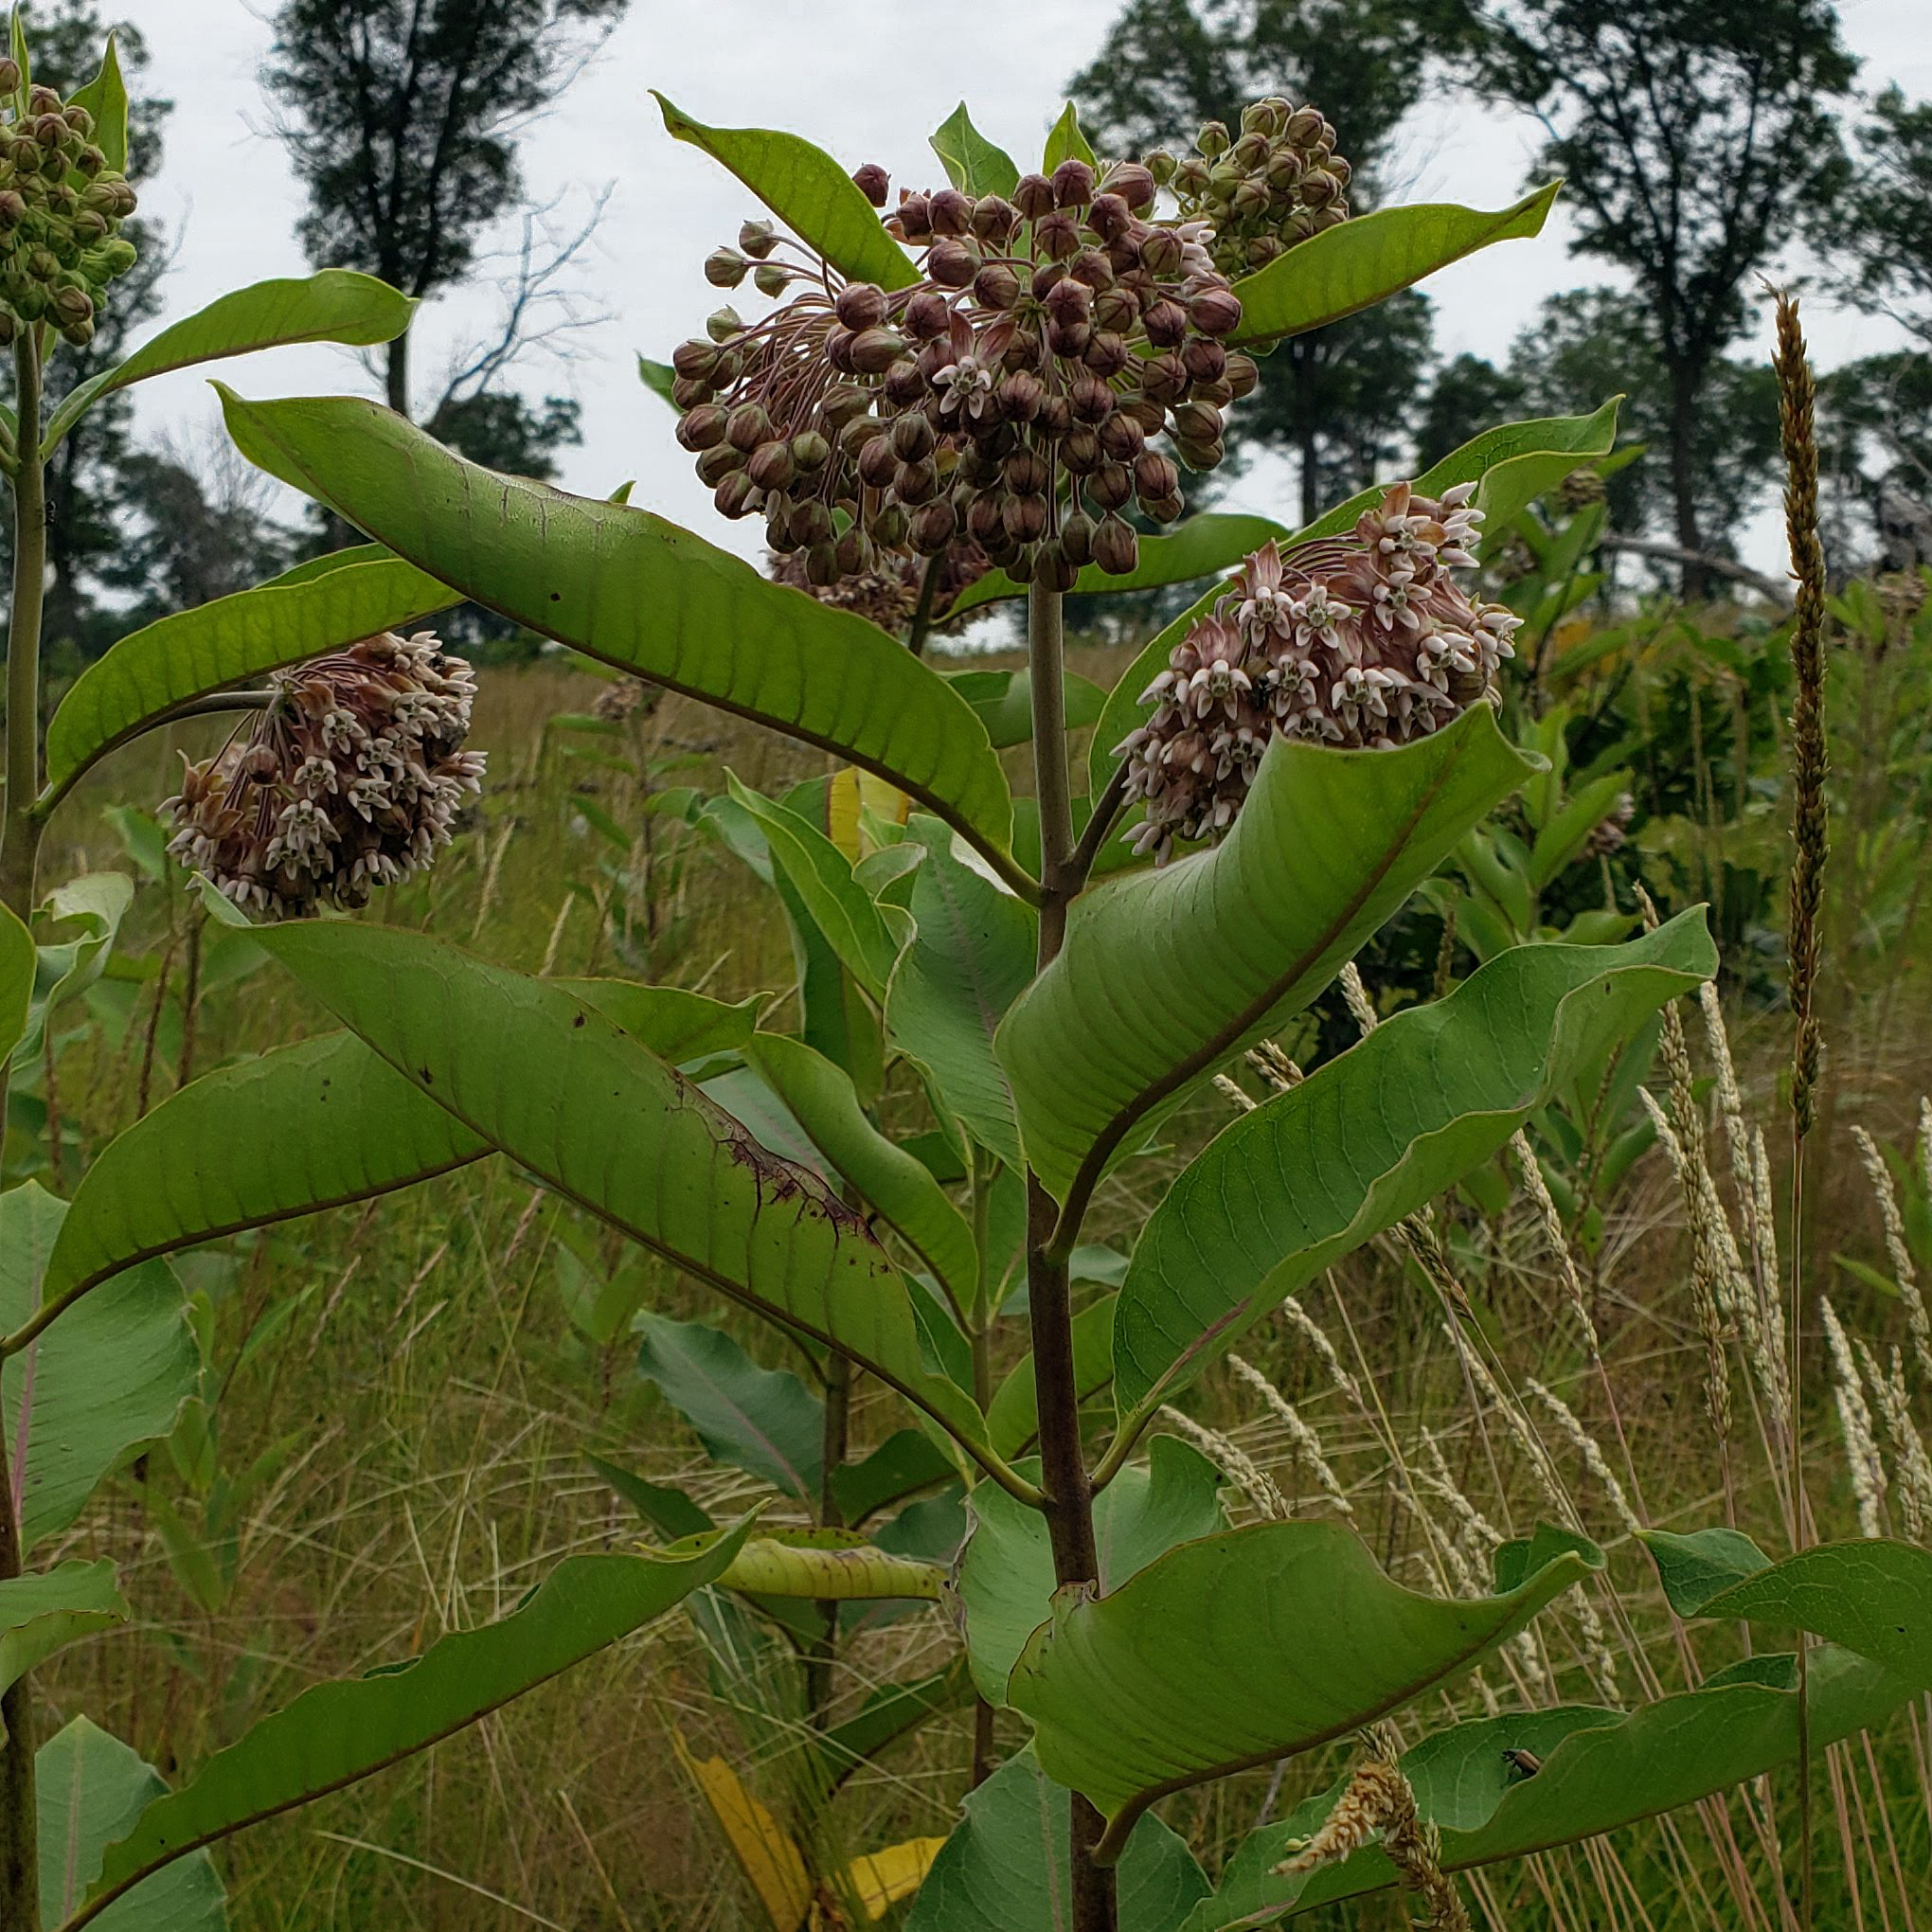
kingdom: Plantae
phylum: Tracheophyta
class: Magnoliopsida
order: Gentianales
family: Apocynaceae
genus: Asclepias
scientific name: Asclepias syriaca
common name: Common milkweed
